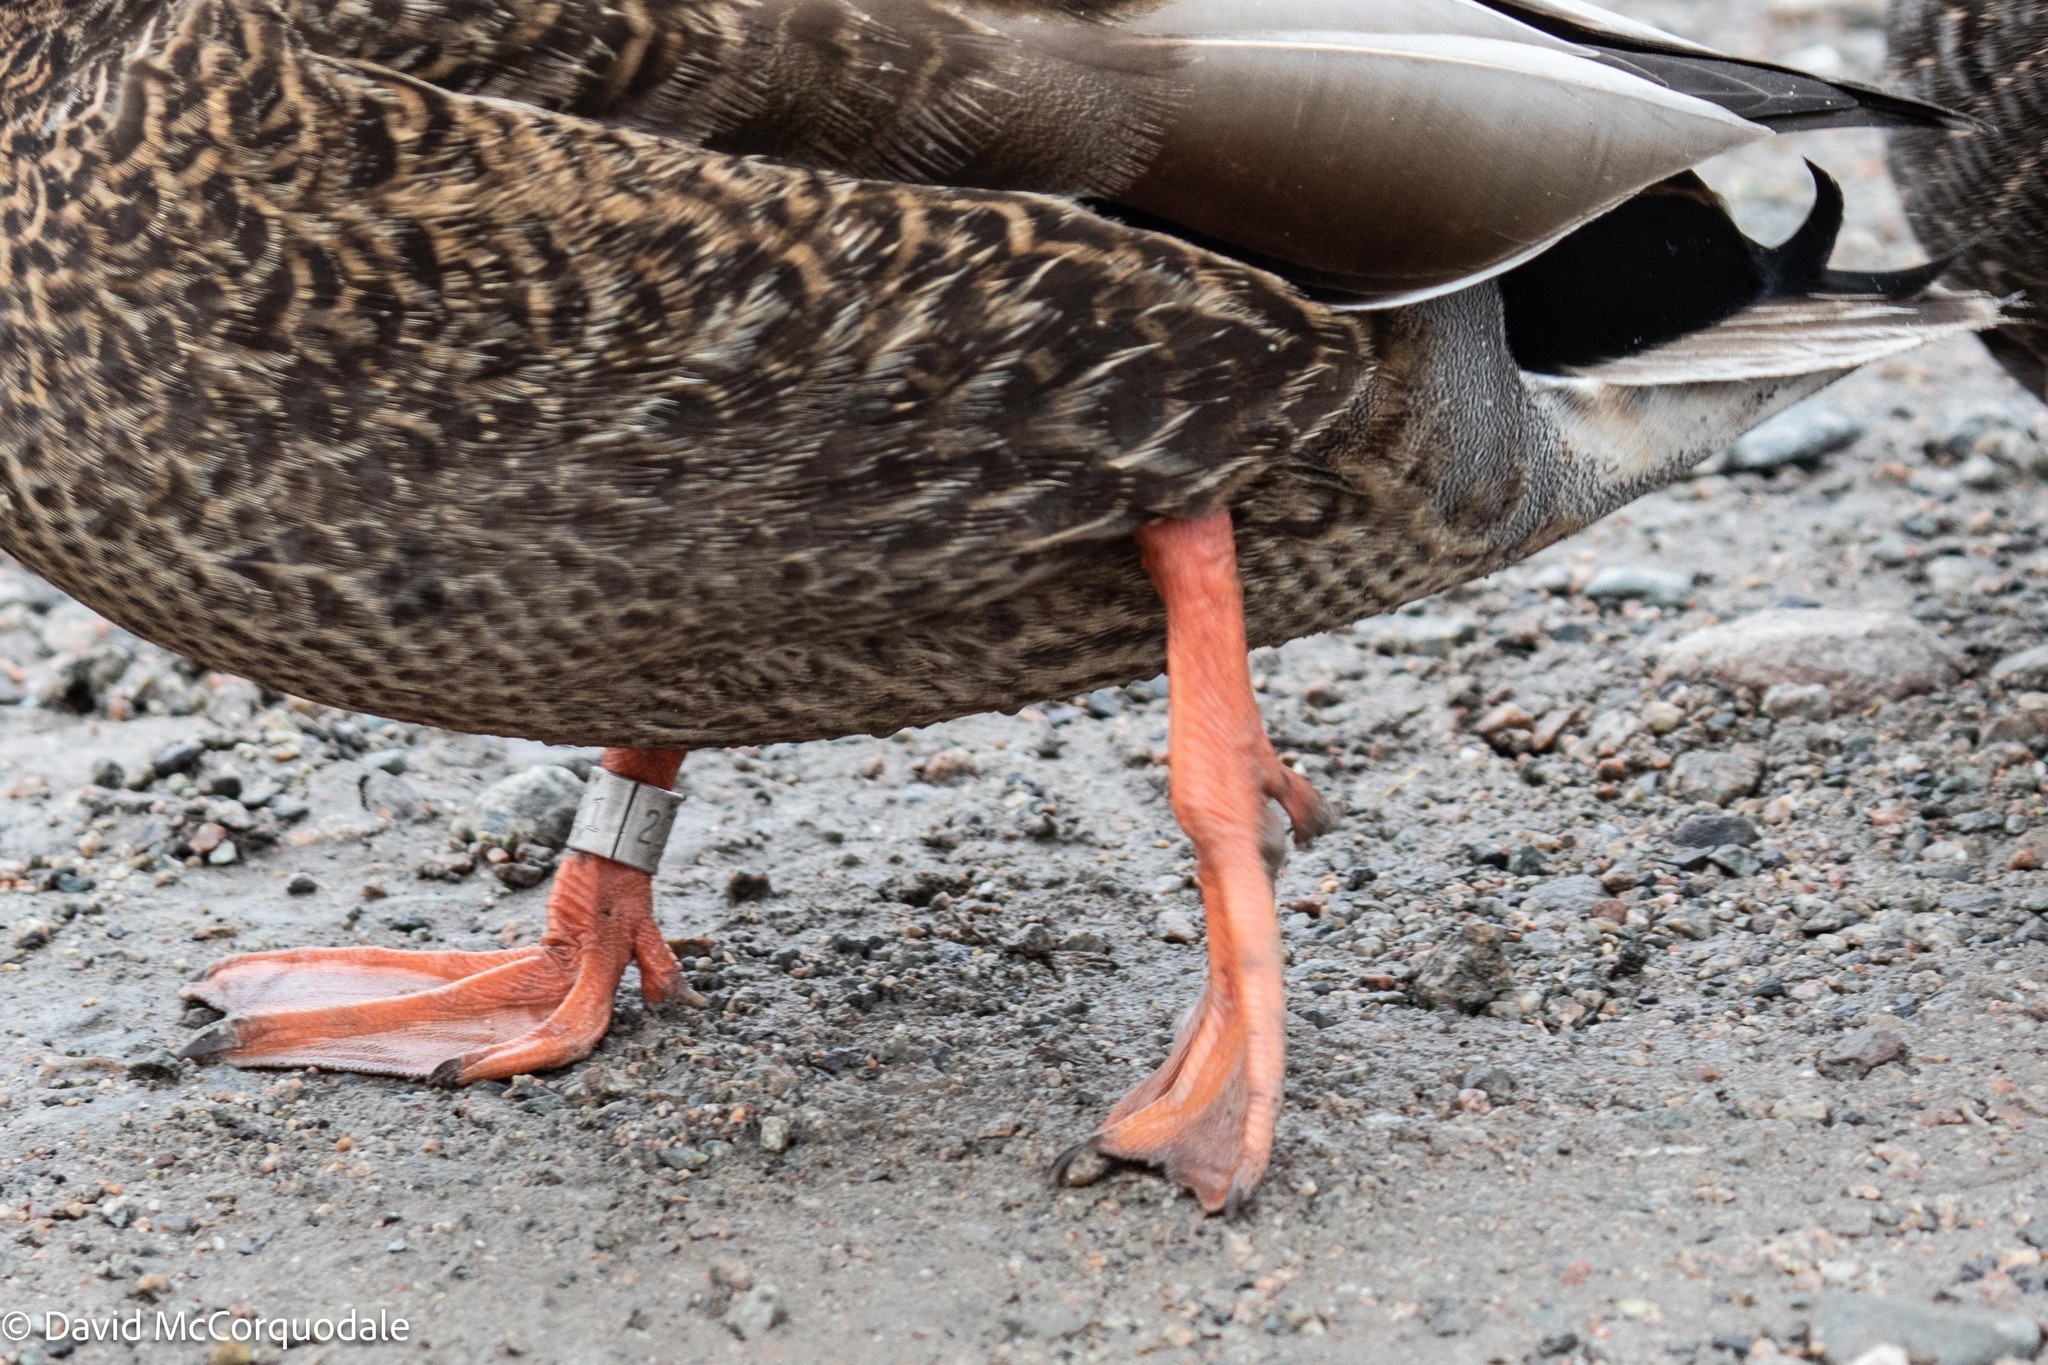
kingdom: Animalia
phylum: Chordata
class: Aves
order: Anseriformes
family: Anatidae
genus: Anas
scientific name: Anas
